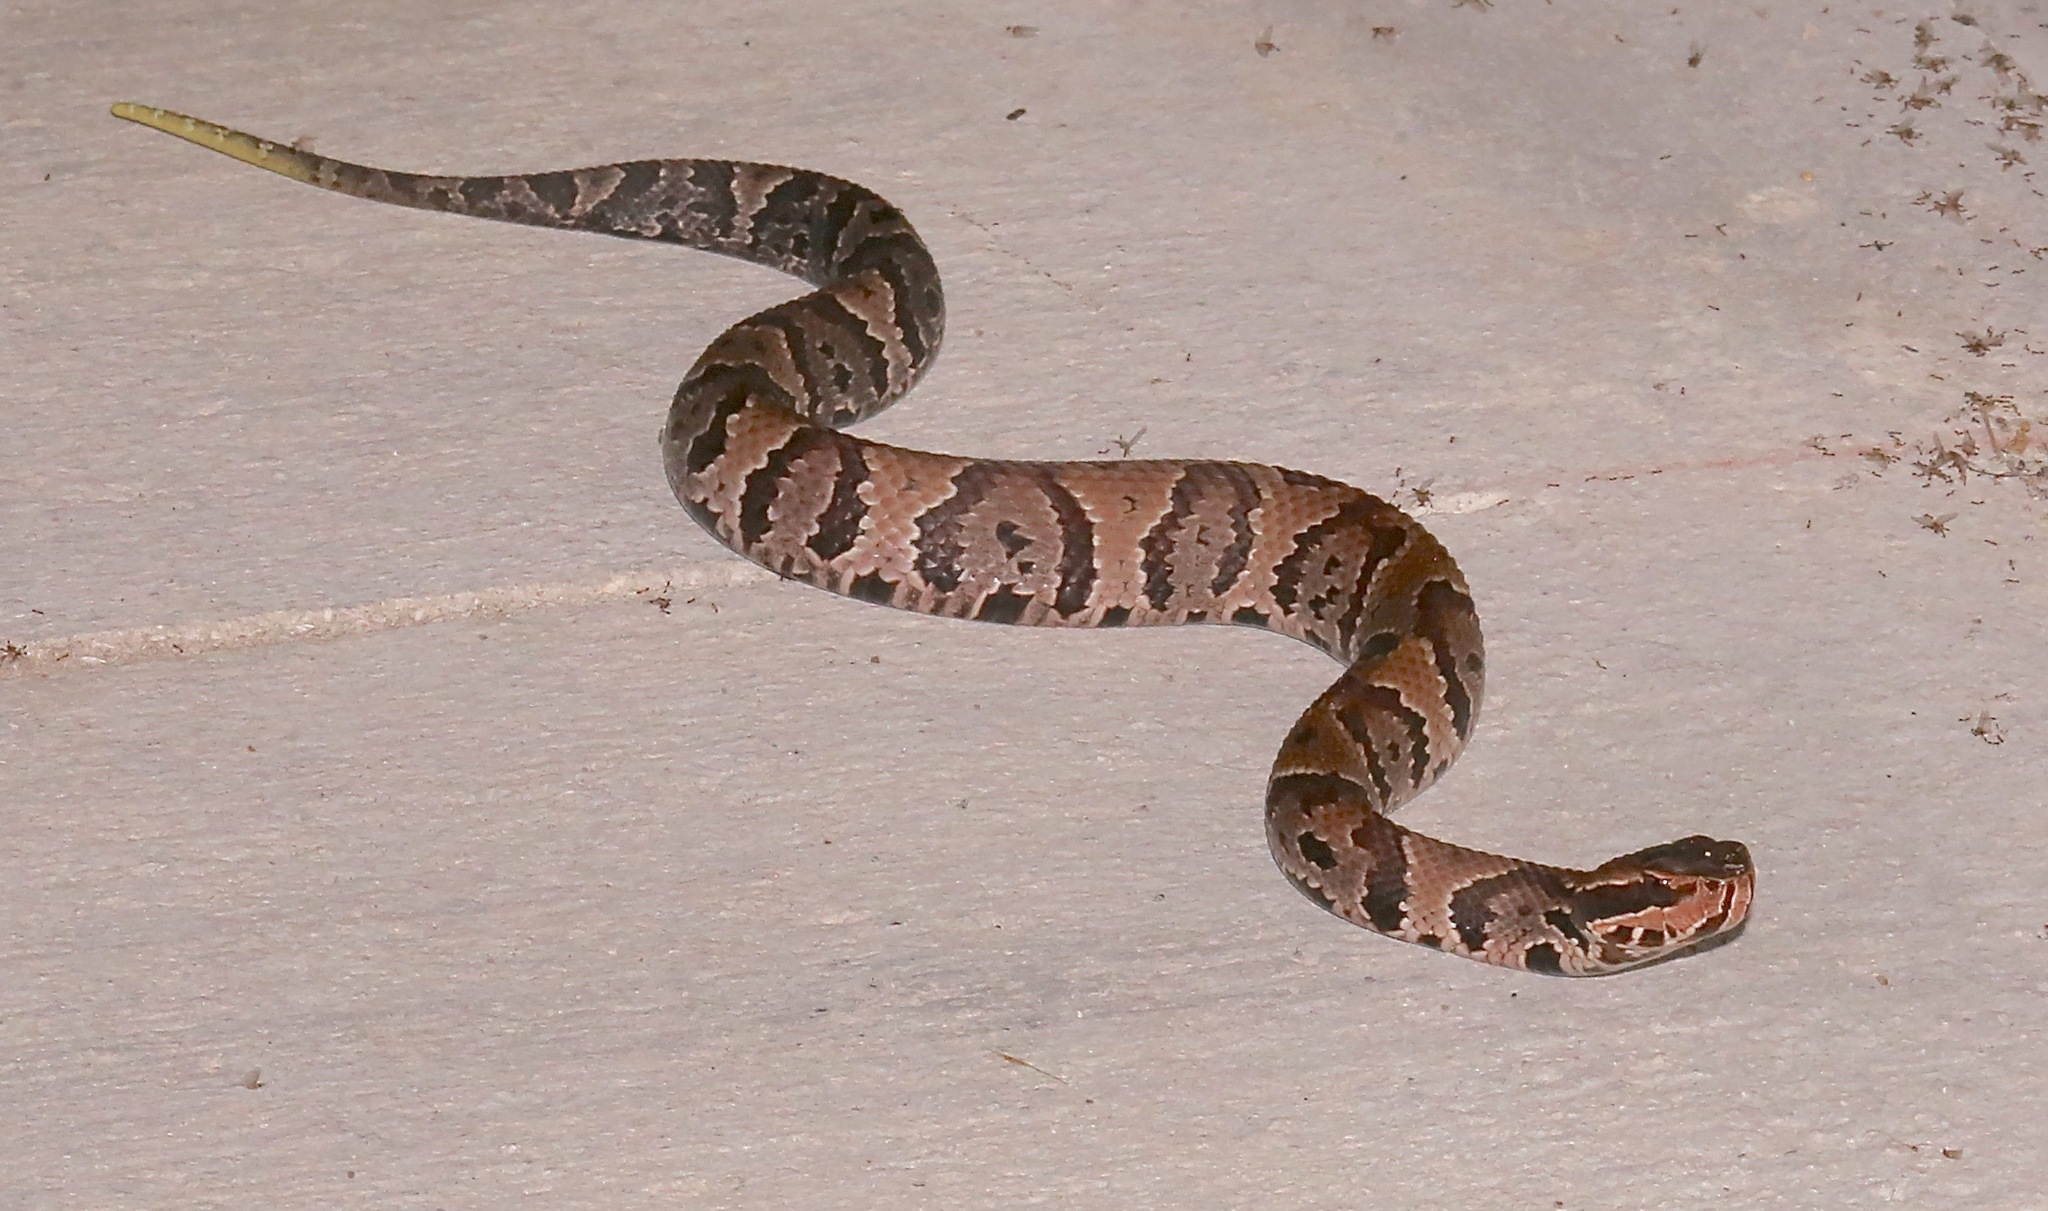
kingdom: Animalia
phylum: Chordata
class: Squamata
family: Viperidae
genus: Agkistrodon
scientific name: Agkistrodon conanti
